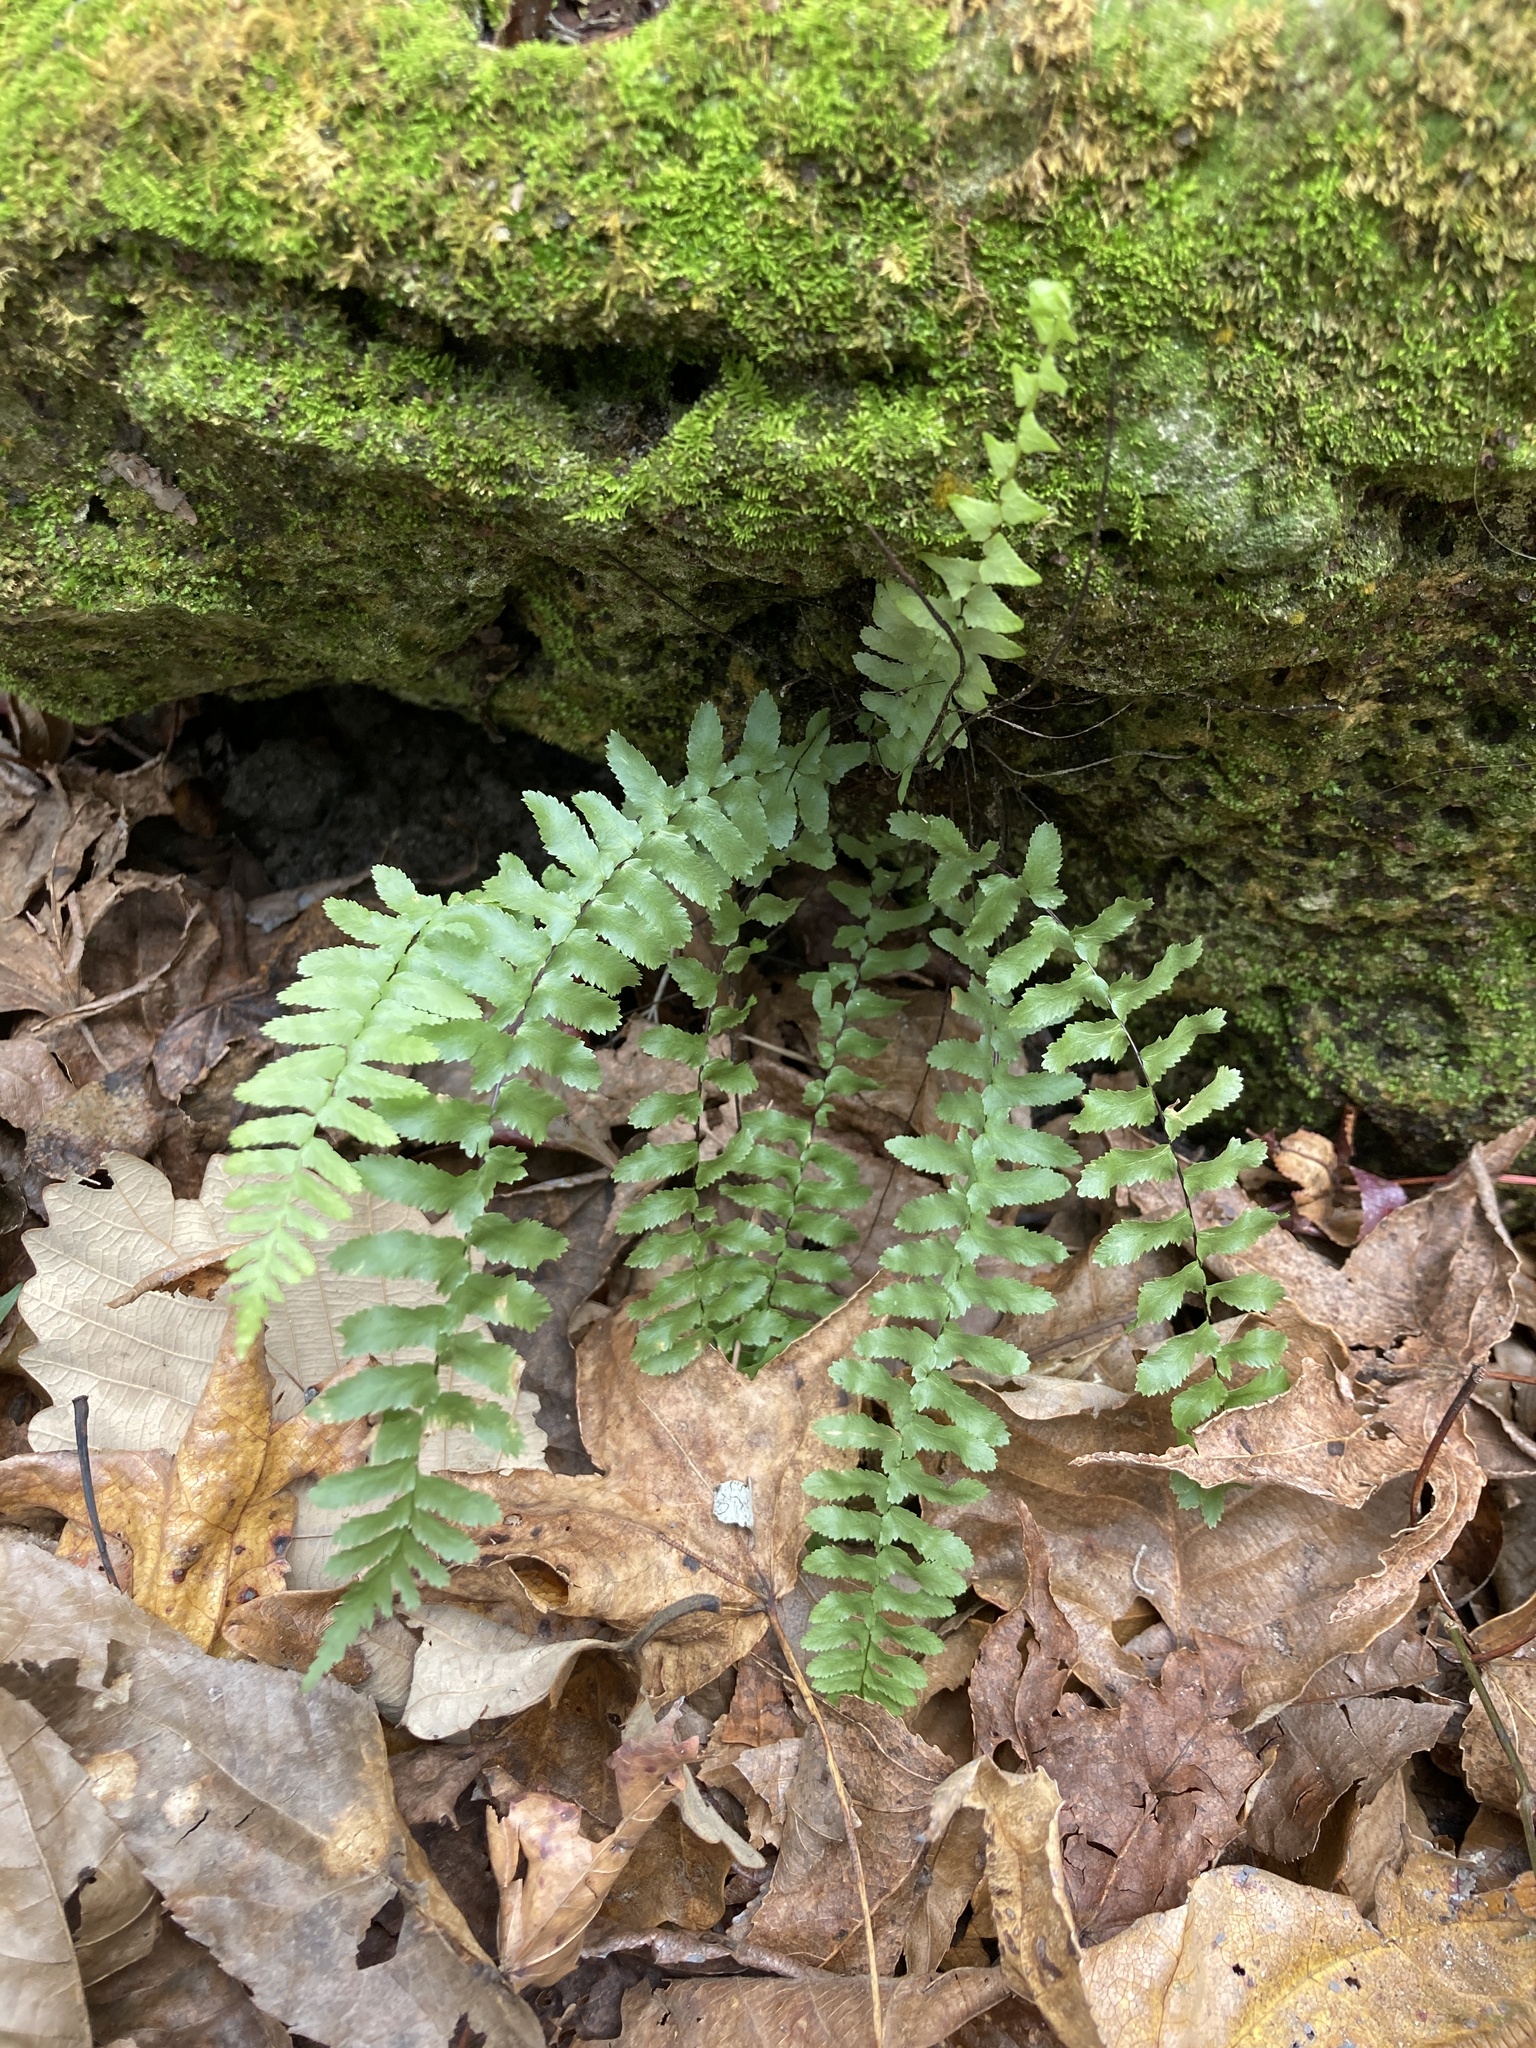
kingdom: Plantae
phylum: Tracheophyta
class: Polypodiopsida
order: Polypodiales
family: Aspleniaceae
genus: Asplenium
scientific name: Asplenium platyneuron
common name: Ebony spleenwort
